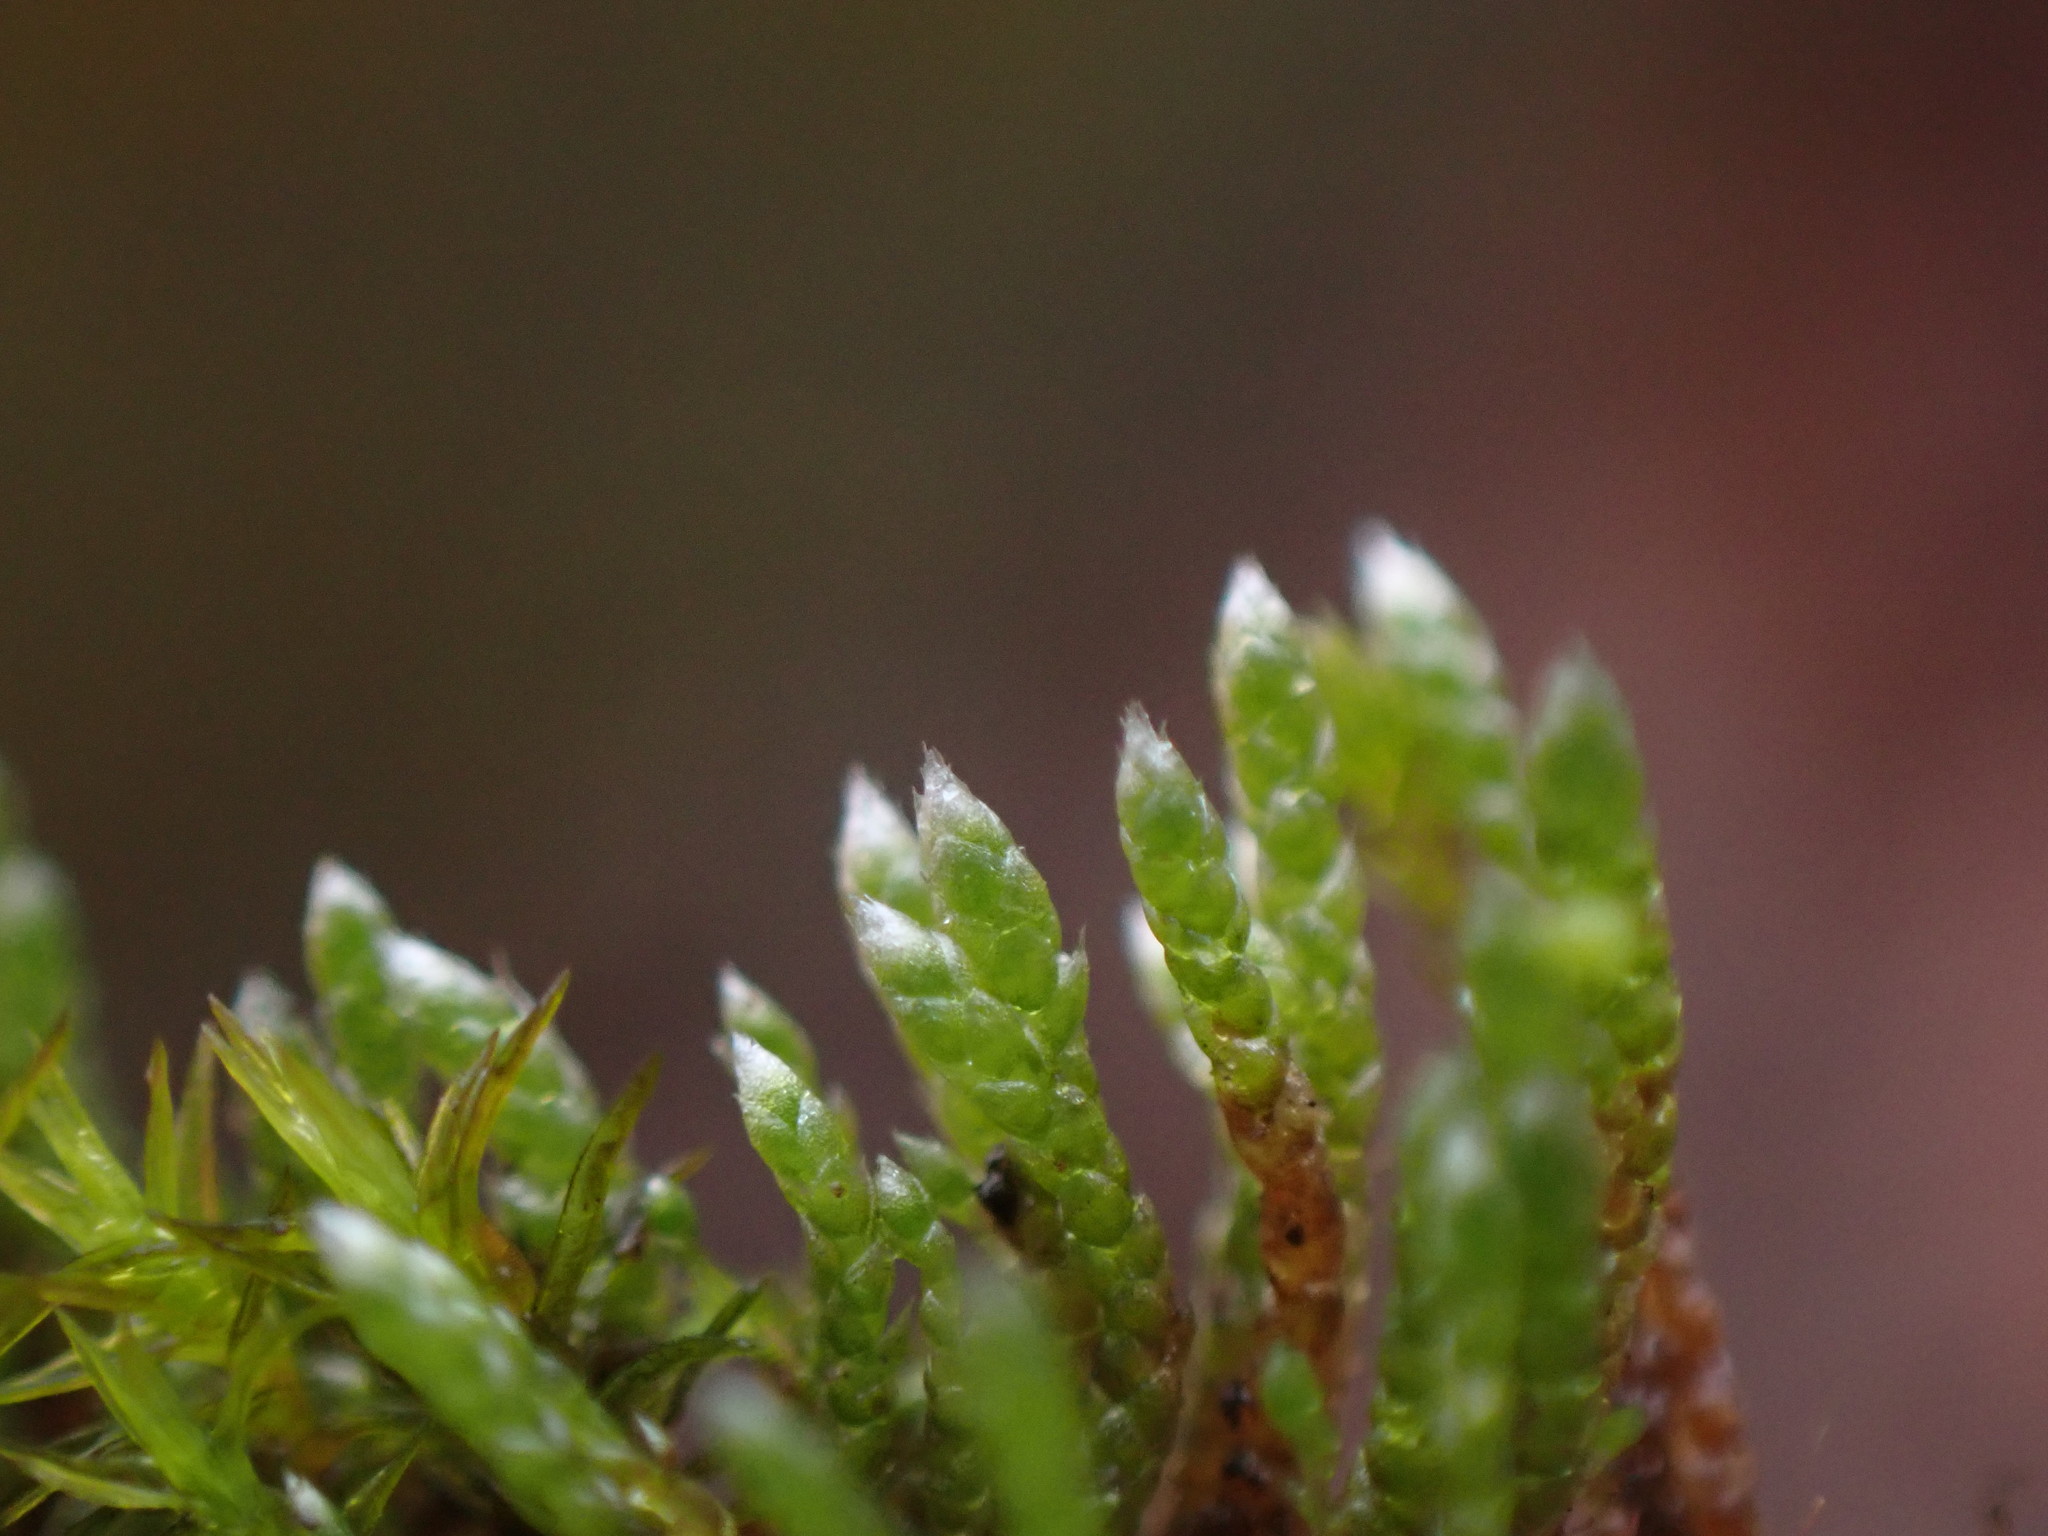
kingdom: Plantae
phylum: Bryophyta
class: Bryopsida
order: Bryales
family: Bryaceae
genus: Bryum
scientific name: Bryum argenteum
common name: Silver-moss
